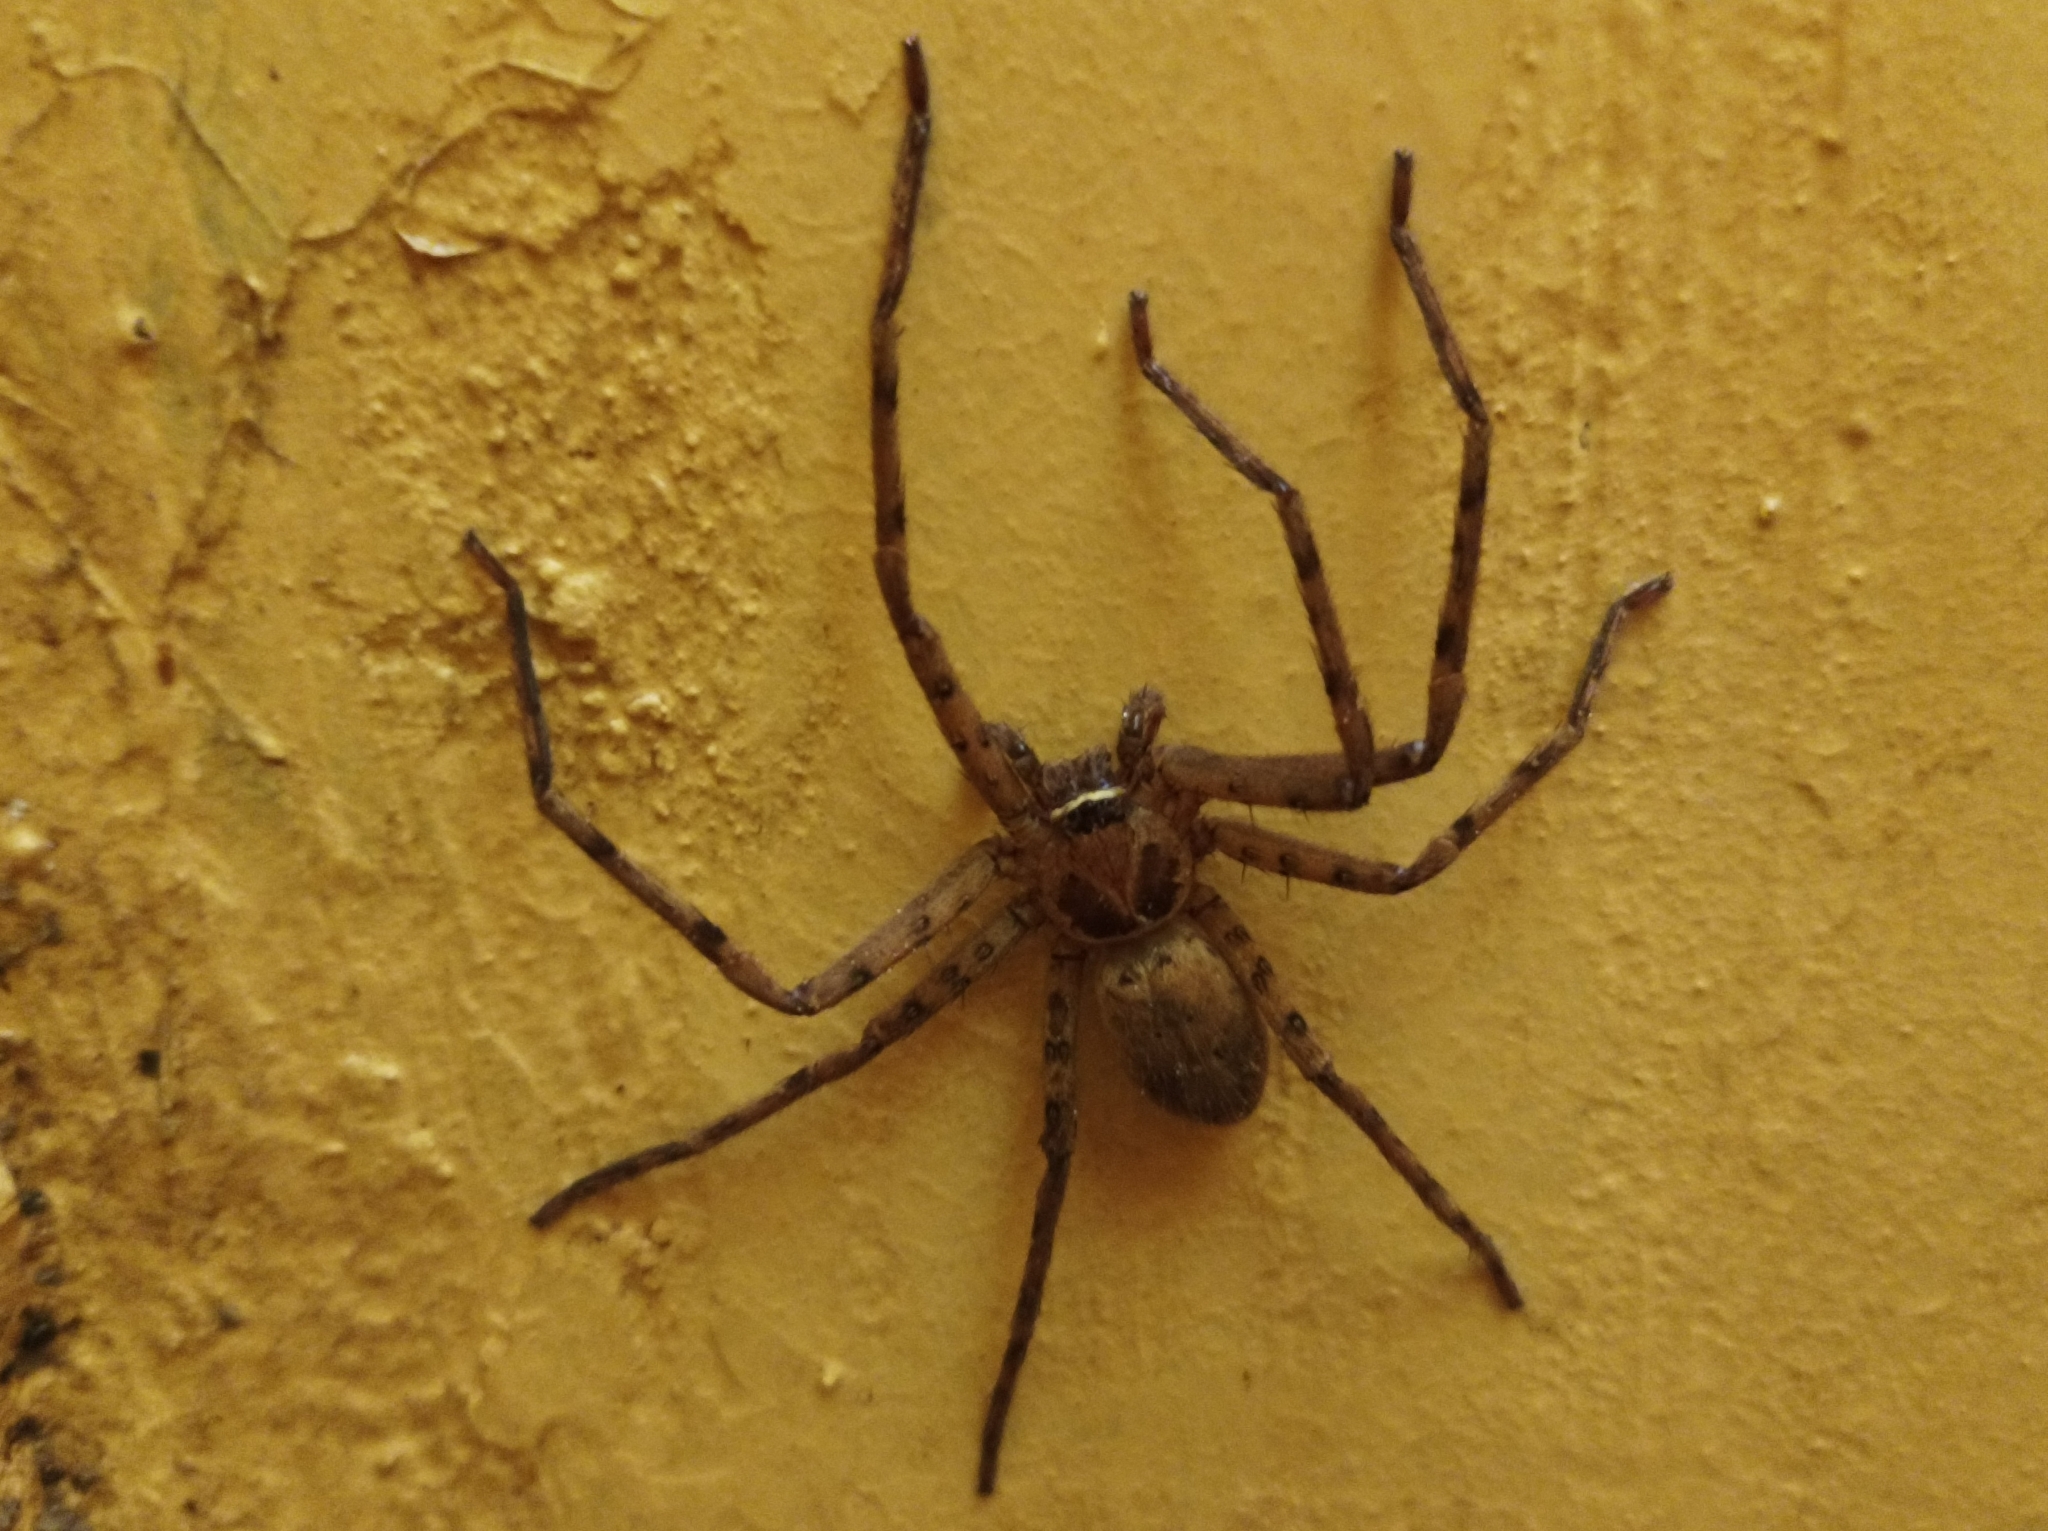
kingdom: Animalia
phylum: Arthropoda
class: Arachnida
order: Araneae
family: Sparassidae
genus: Heteropoda
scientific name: Heteropoda venatoria
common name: Huntsman spider
